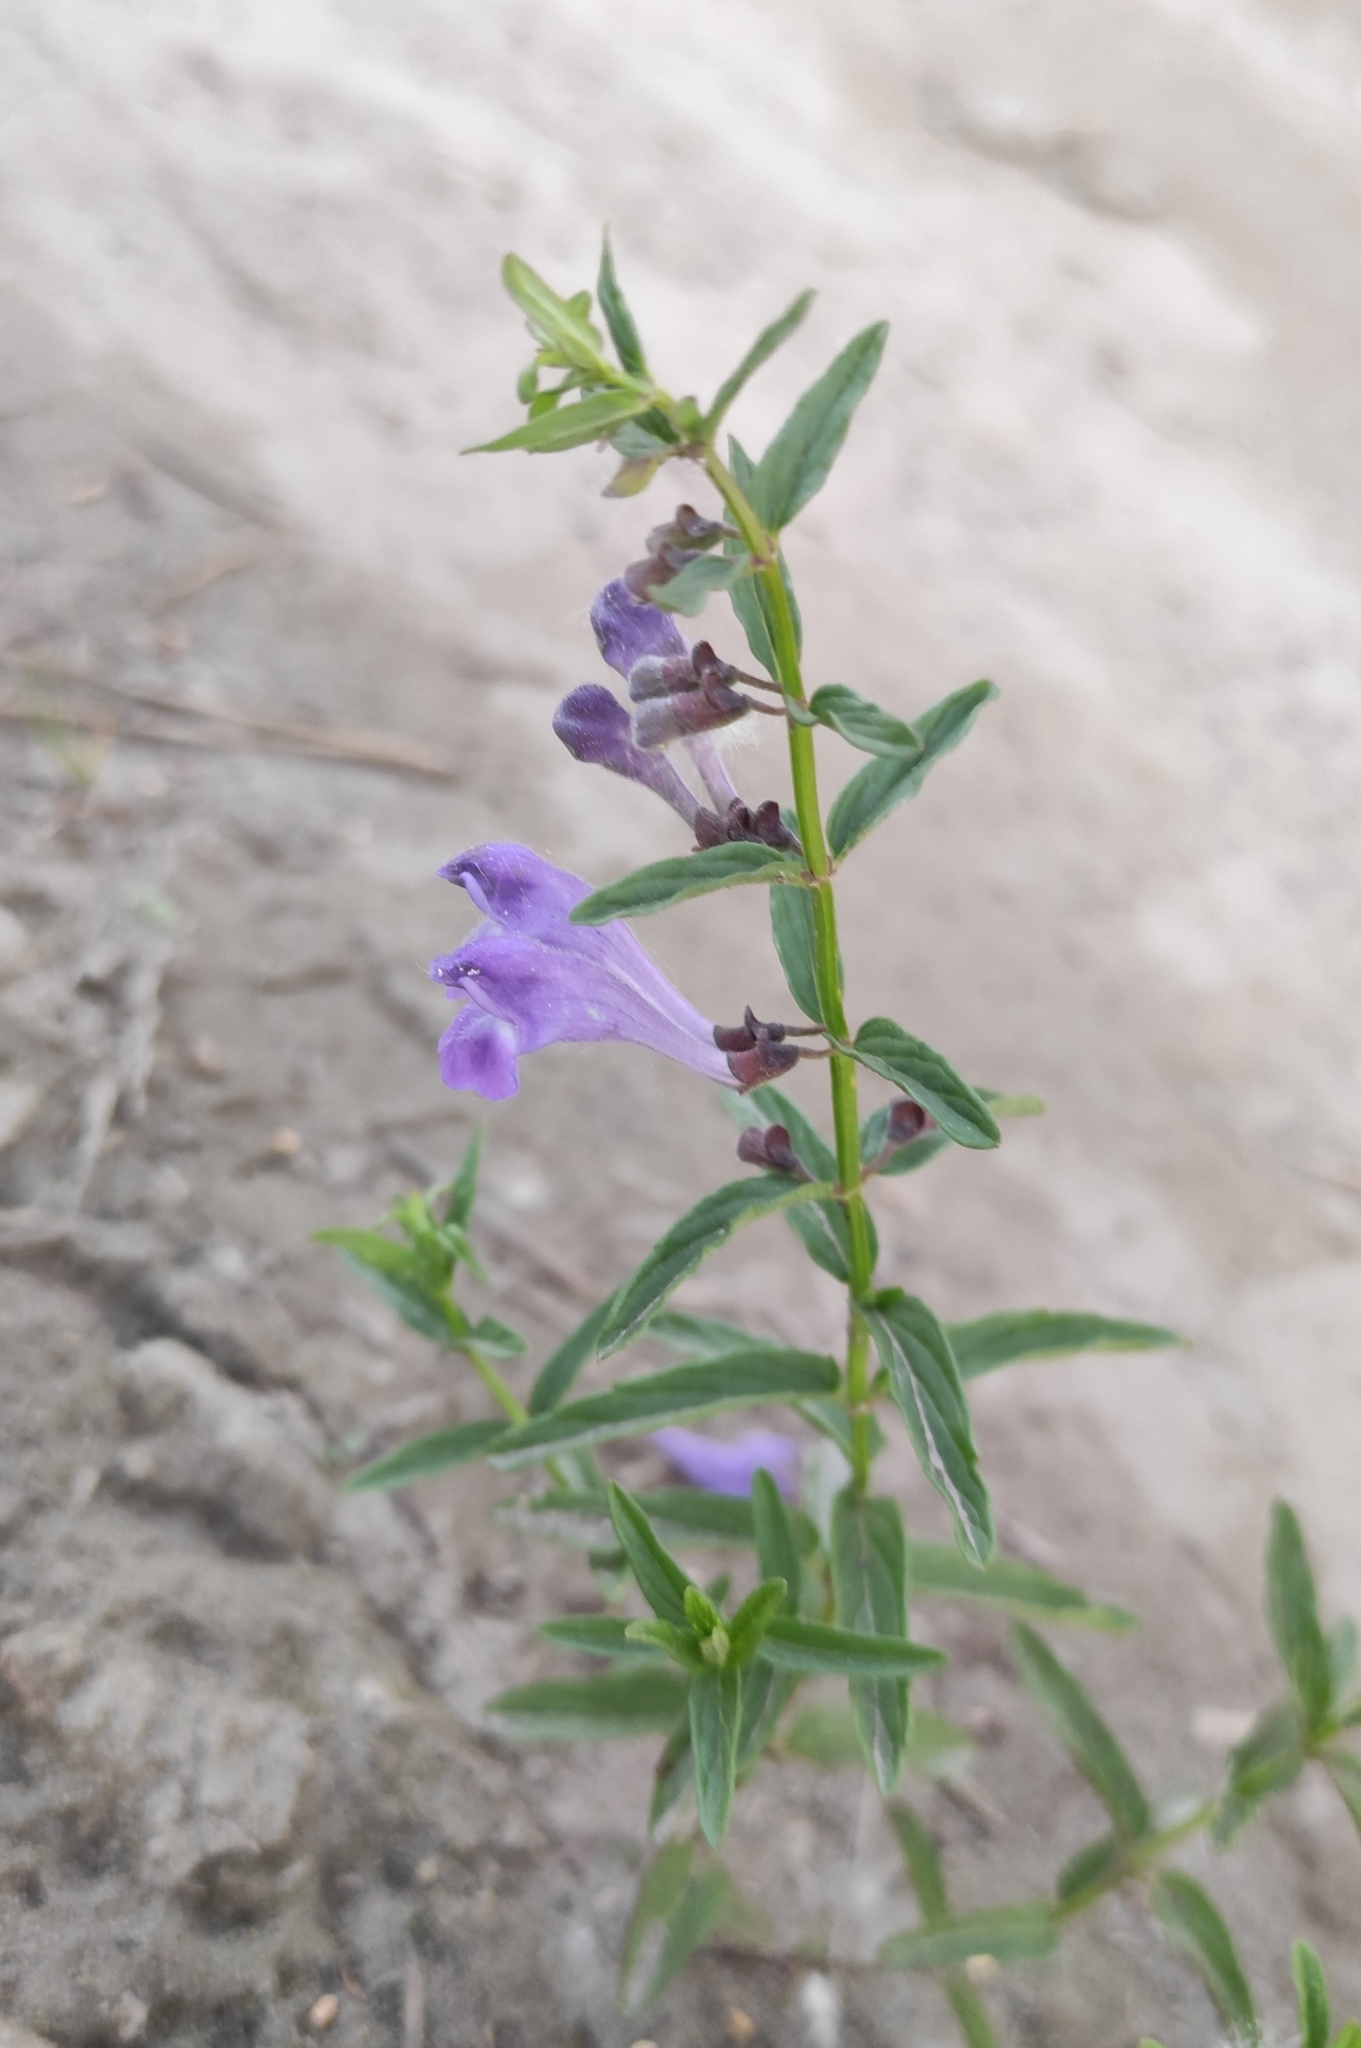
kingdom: Plantae
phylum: Tracheophyta
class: Magnoliopsida
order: Lamiales
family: Lamiaceae
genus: Scutellaria
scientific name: Scutellaria scordiifolia
